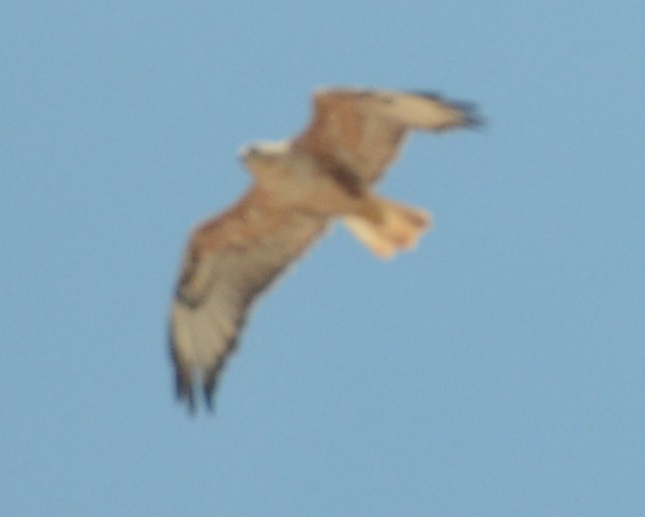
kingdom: Animalia
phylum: Chordata
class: Aves
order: Accipitriformes
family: Accipitridae
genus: Buteo
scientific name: Buteo rufinus
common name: Long-legged buzzard
